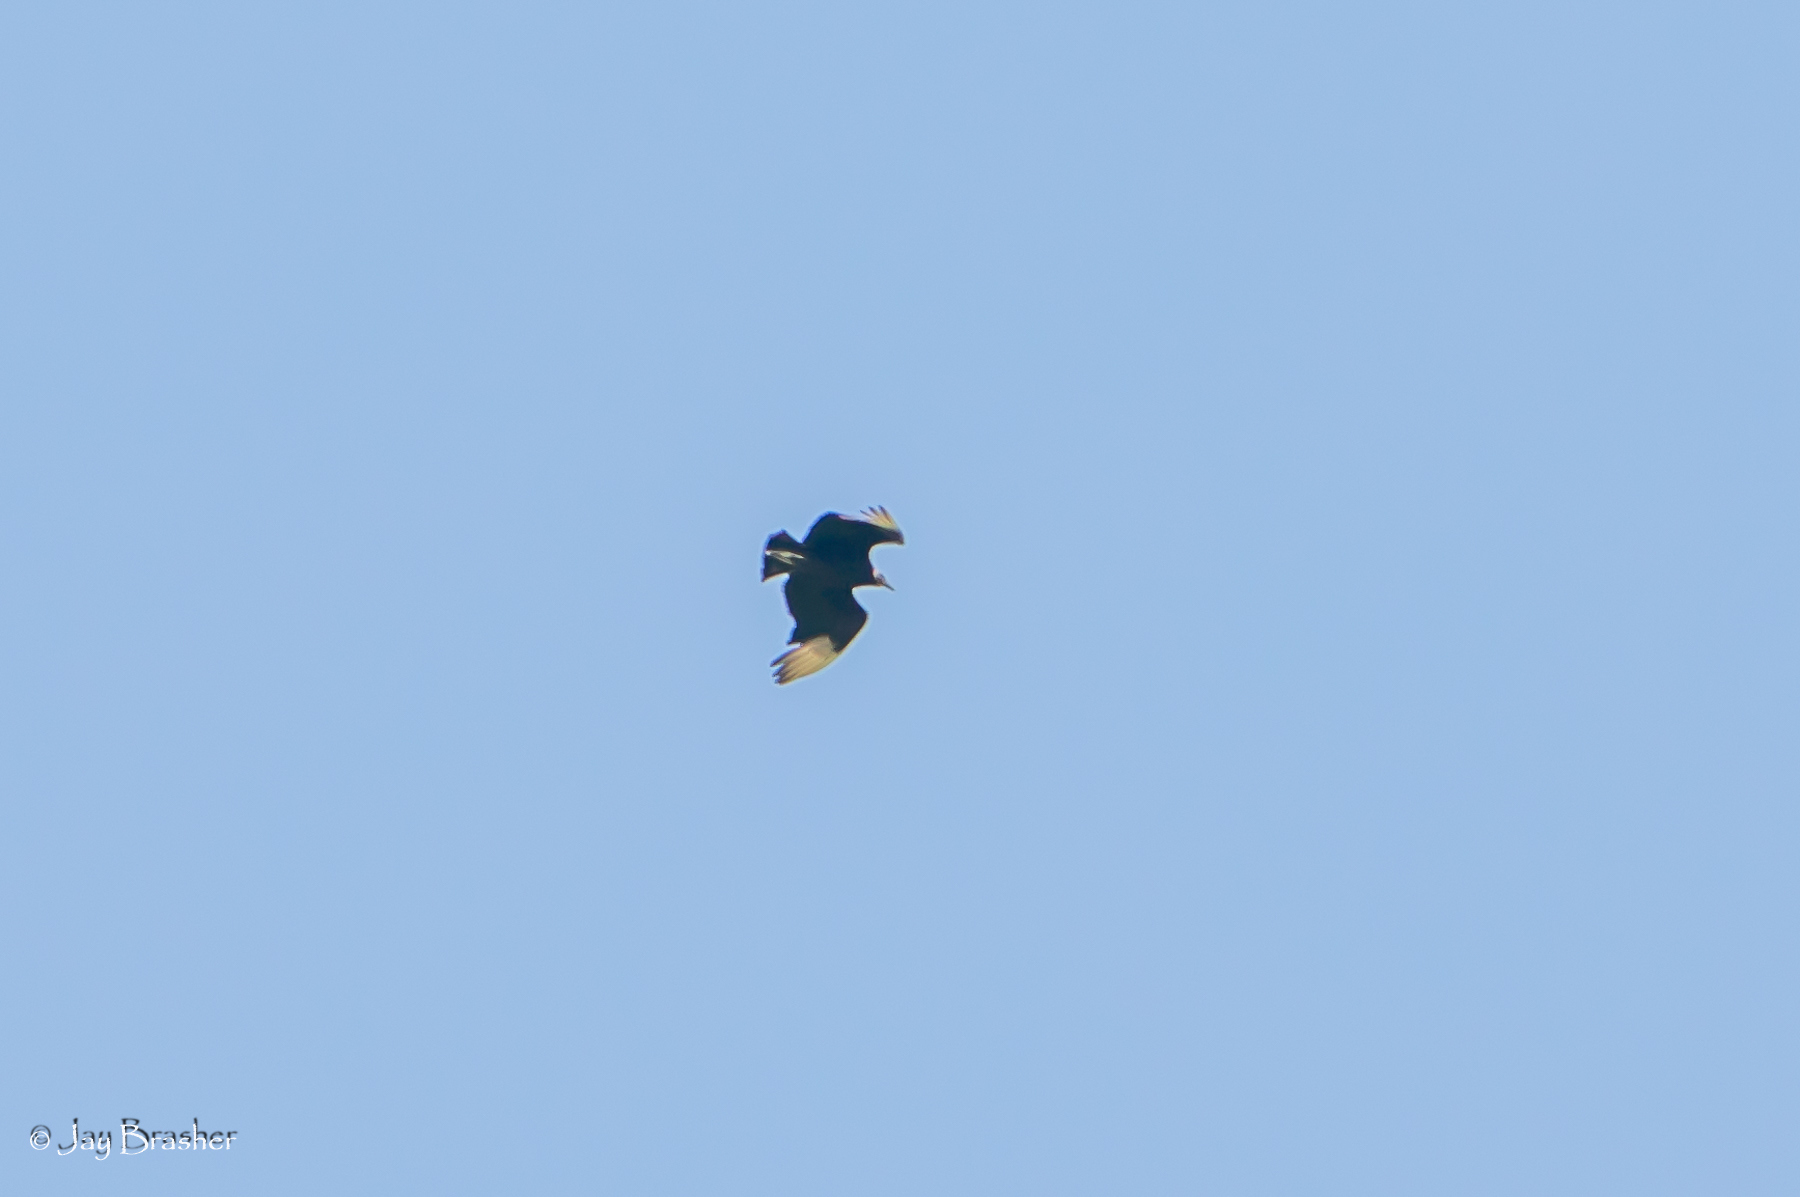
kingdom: Animalia
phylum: Chordata
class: Aves
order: Accipitriformes
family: Cathartidae
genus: Coragyps
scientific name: Coragyps atratus
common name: Black vulture
